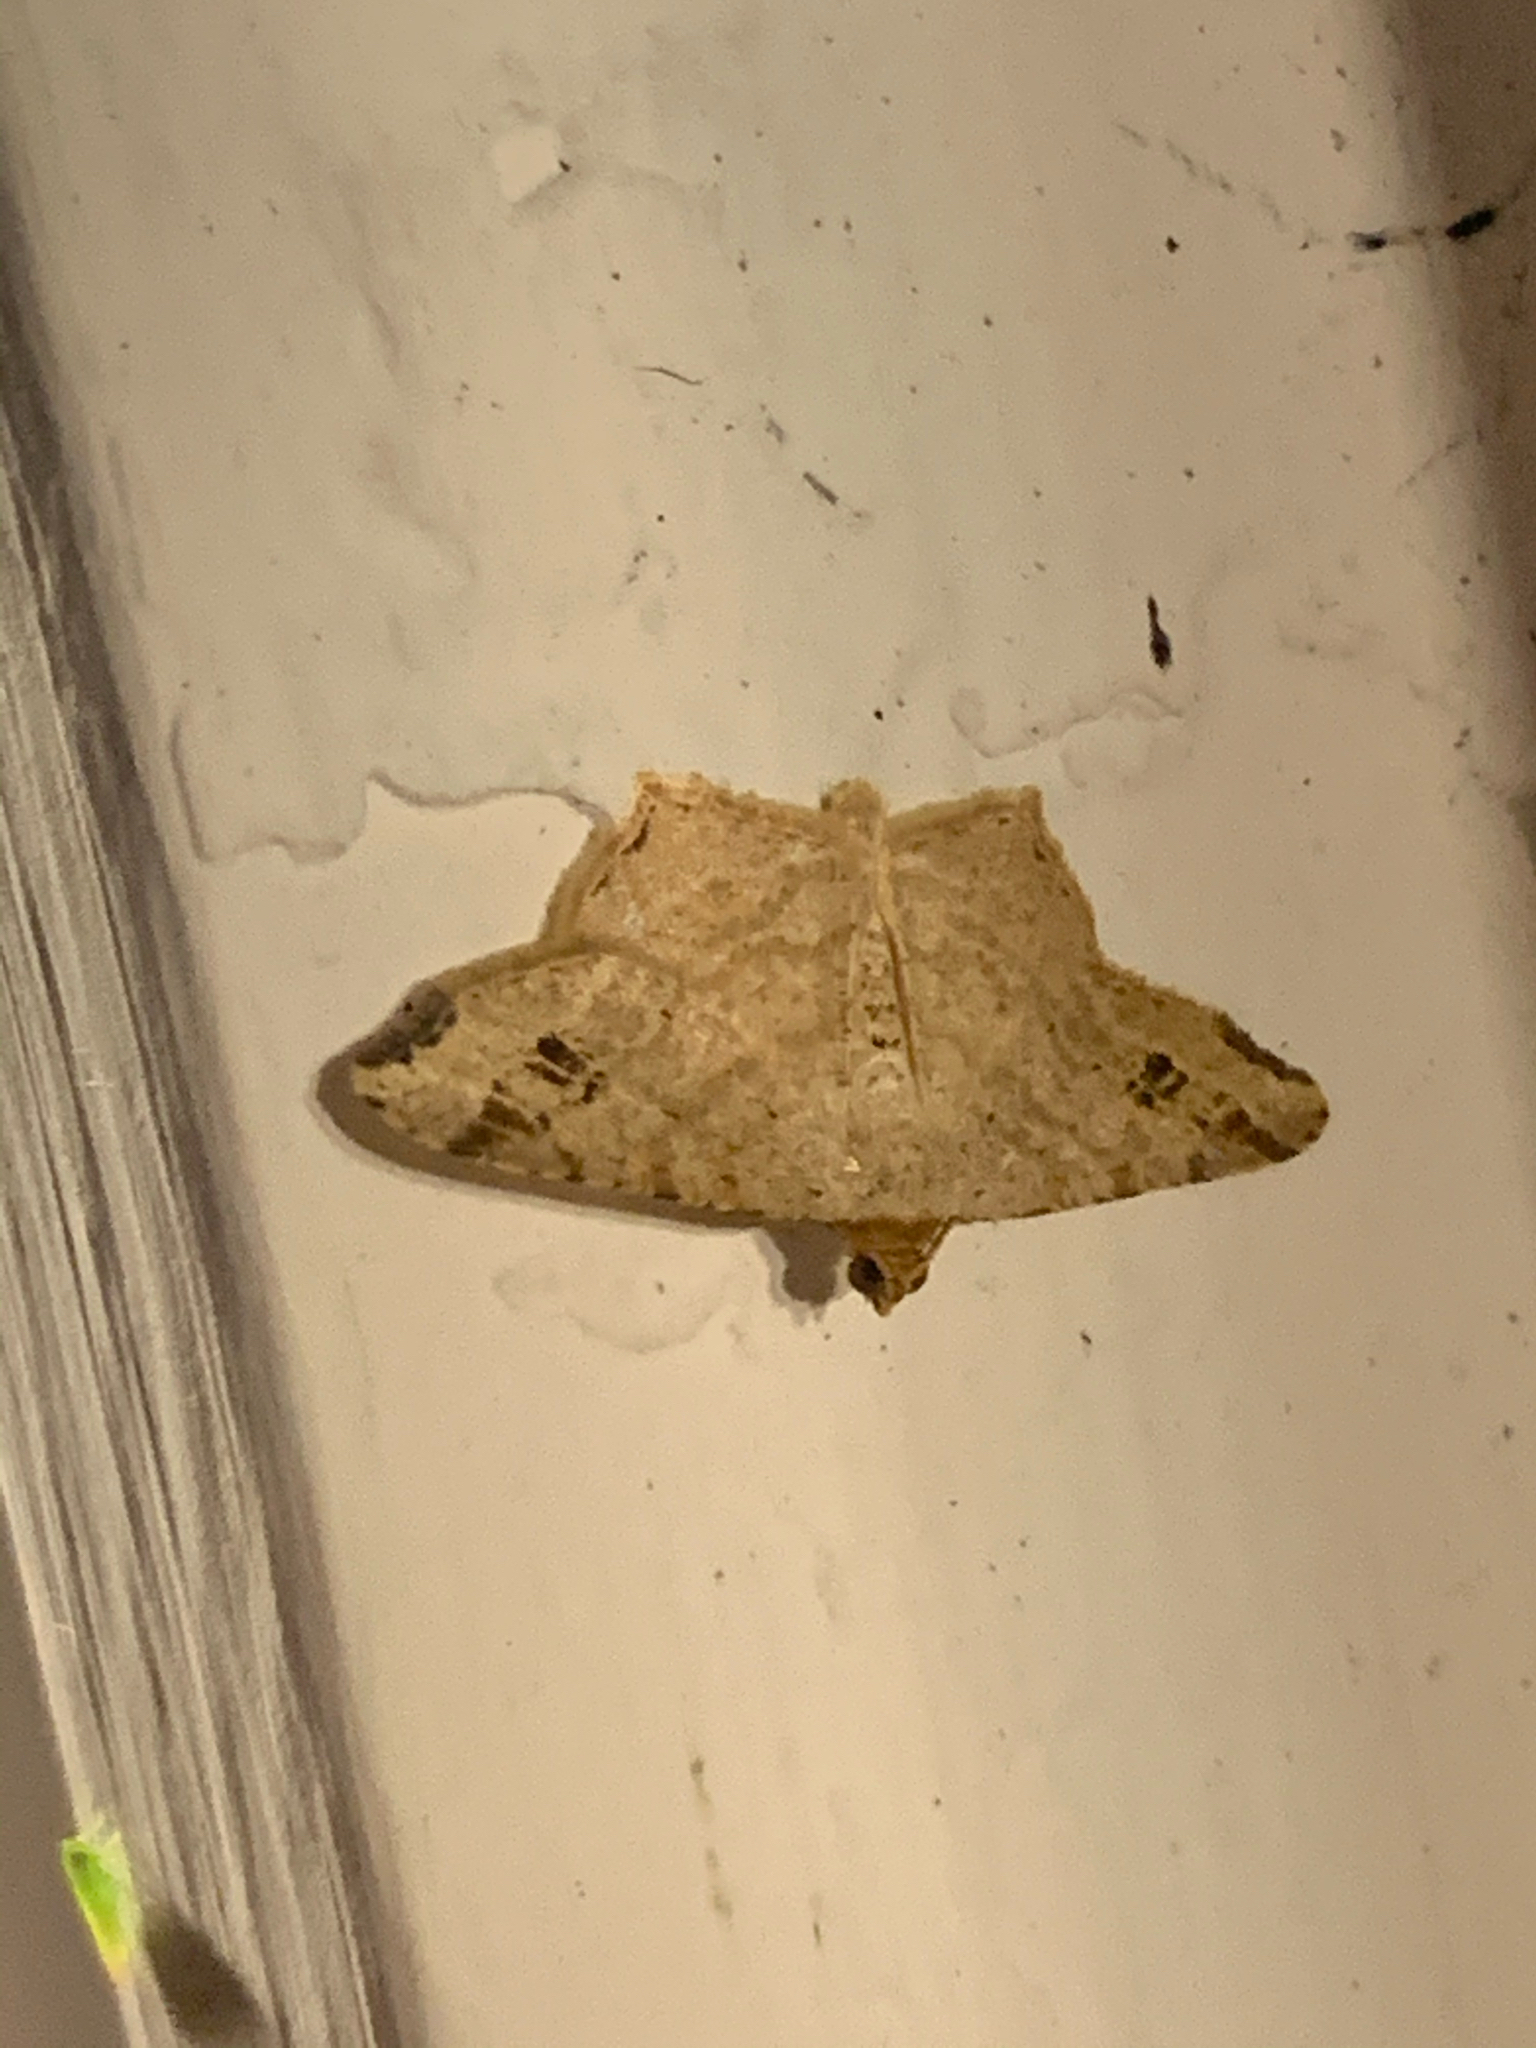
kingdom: Animalia
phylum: Arthropoda
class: Insecta
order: Lepidoptera
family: Geometridae
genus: Macaria
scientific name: Macaria aemulataria
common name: Common angle
